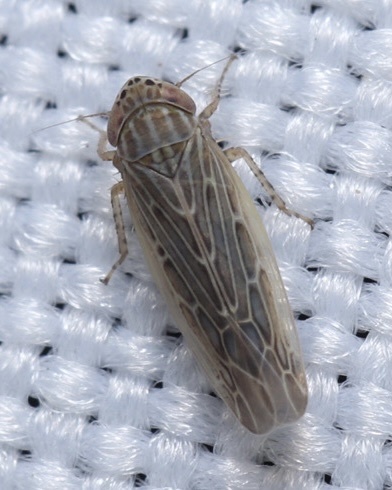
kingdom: Animalia
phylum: Arthropoda
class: Insecta
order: Hemiptera
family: Cicadellidae
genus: Graminella
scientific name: Graminella sonora
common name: Lesser lawn leafhopper
